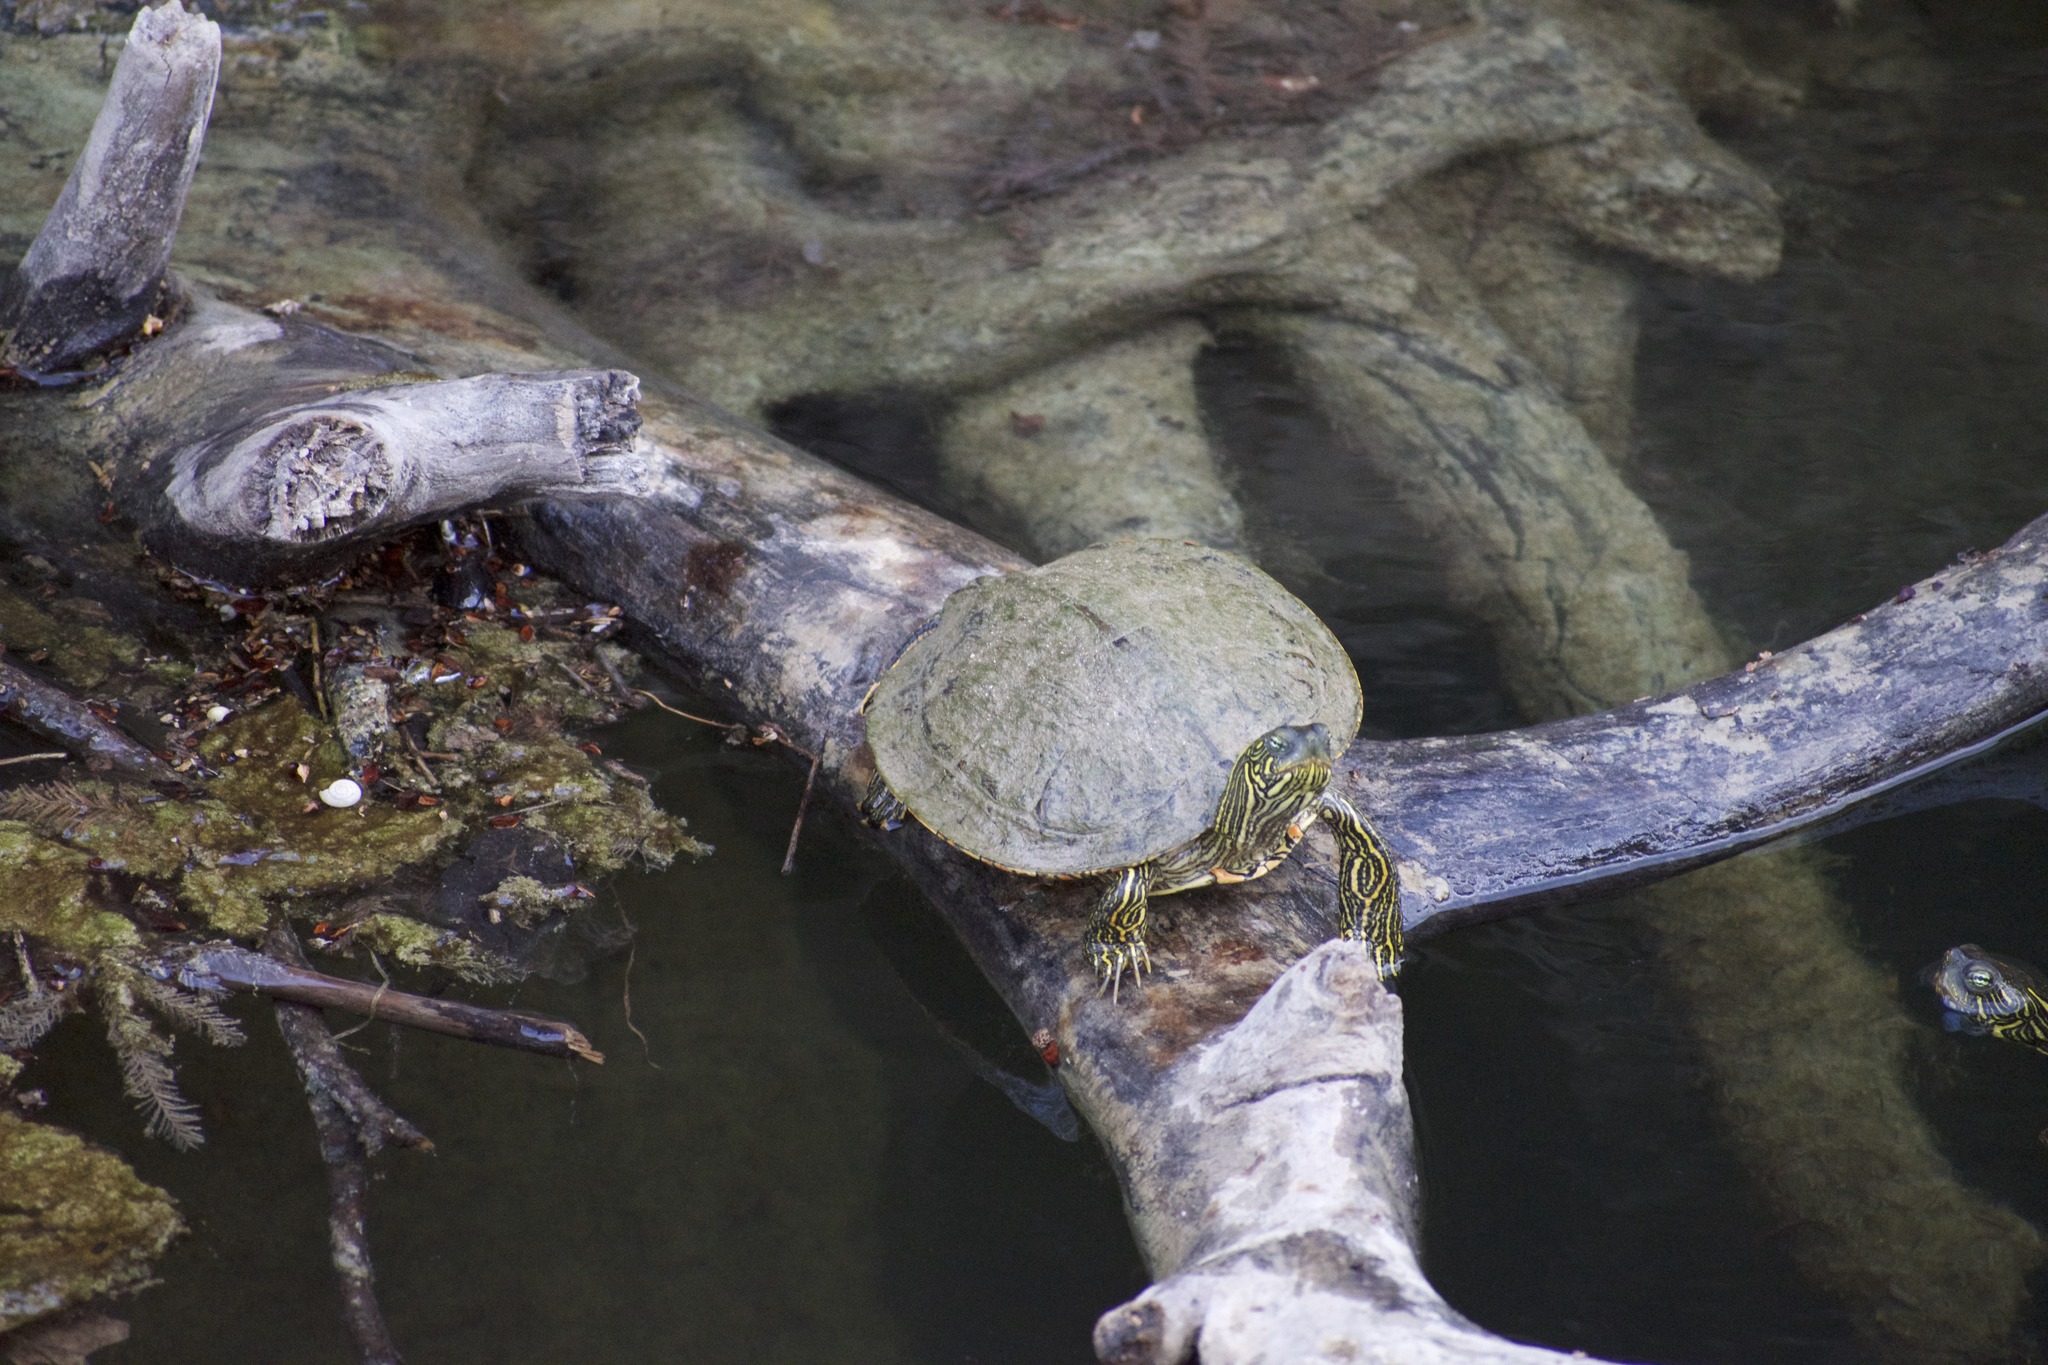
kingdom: Animalia
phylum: Chordata
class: Testudines
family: Emydidae
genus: Pseudemys
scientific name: Pseudemys texana
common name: Texas river cooter
